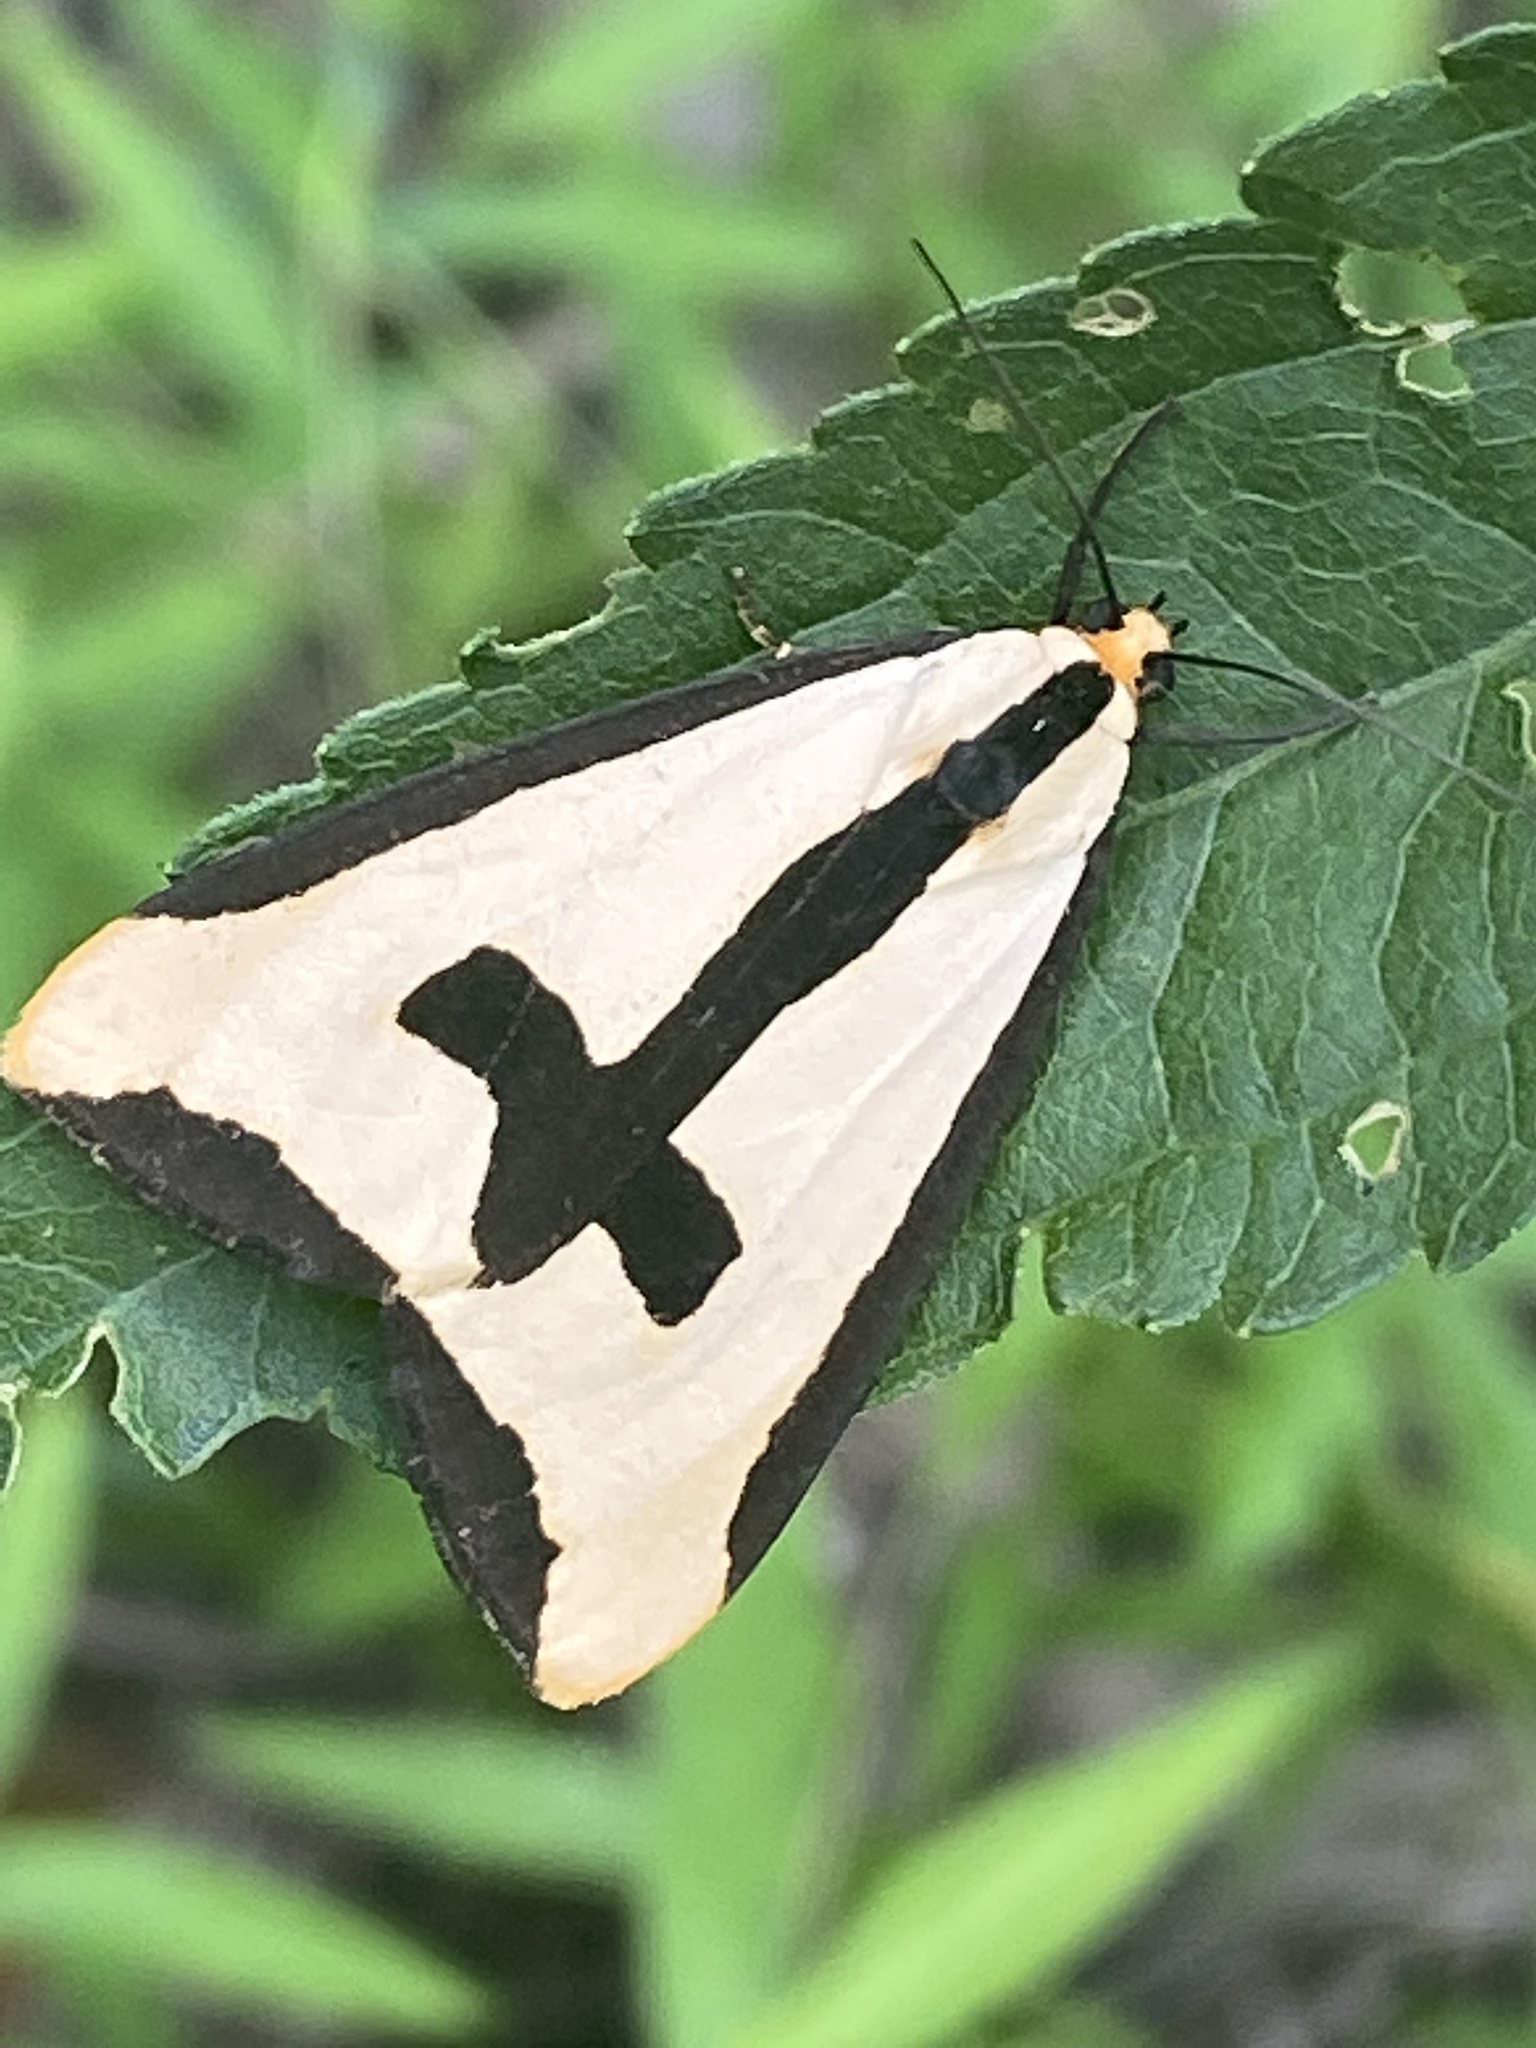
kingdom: Animalia
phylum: Arthropoda
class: Insecta
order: Lepidoptera
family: Erebidae
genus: Haploa
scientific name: Haploa clymene
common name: Clymene moth
